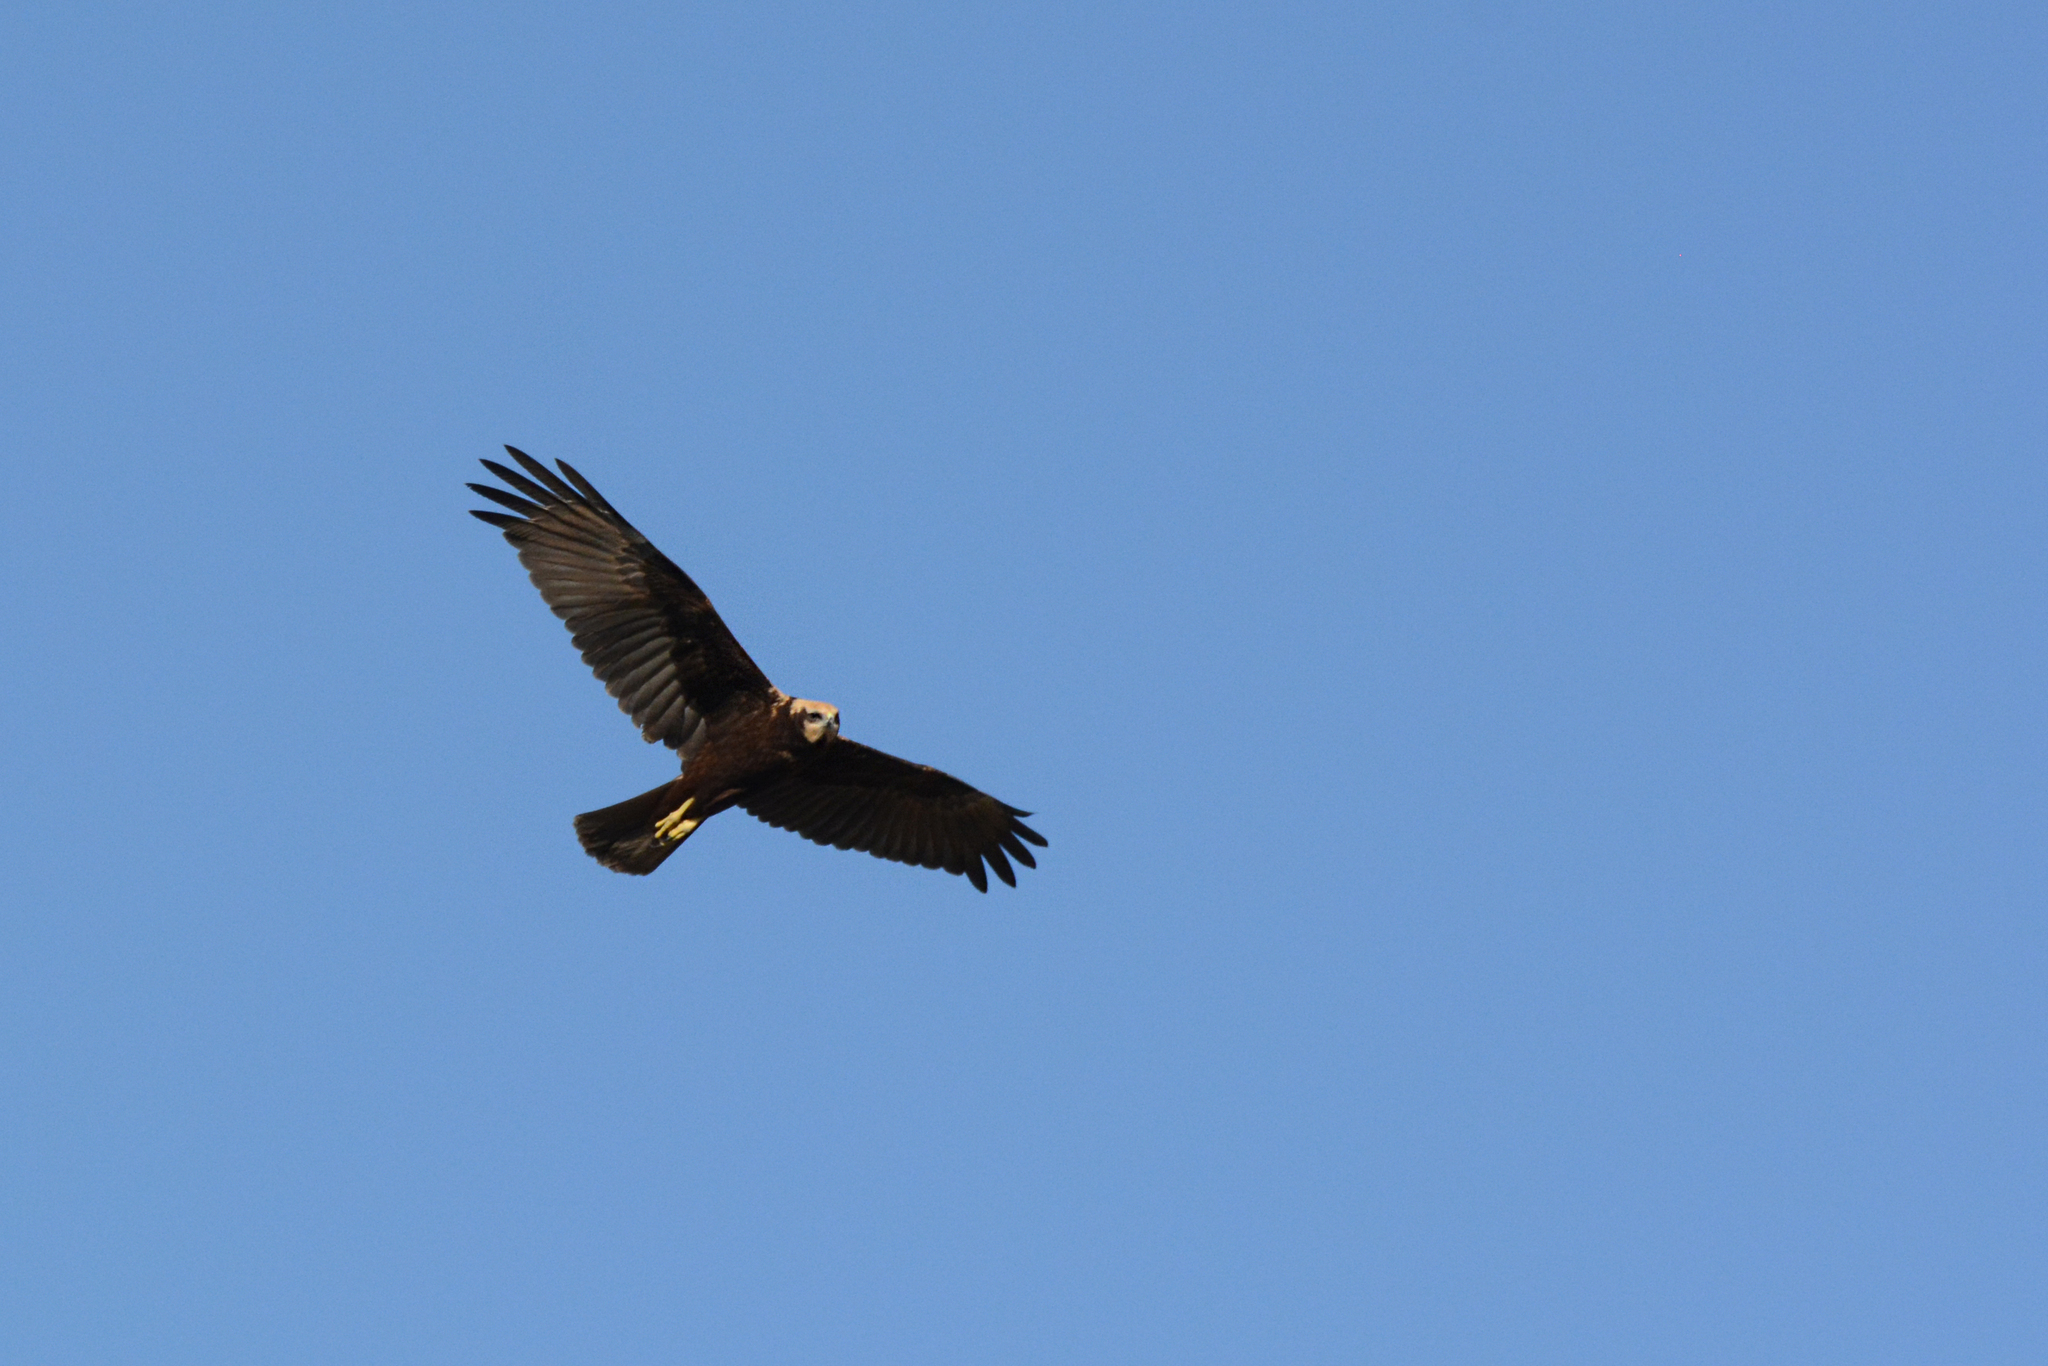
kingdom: Animalia
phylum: Chordata
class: Aves
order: Accipitriformes
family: Accipitridae
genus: Circus
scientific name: Circus aeruginosus
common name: Western marsh harrier
